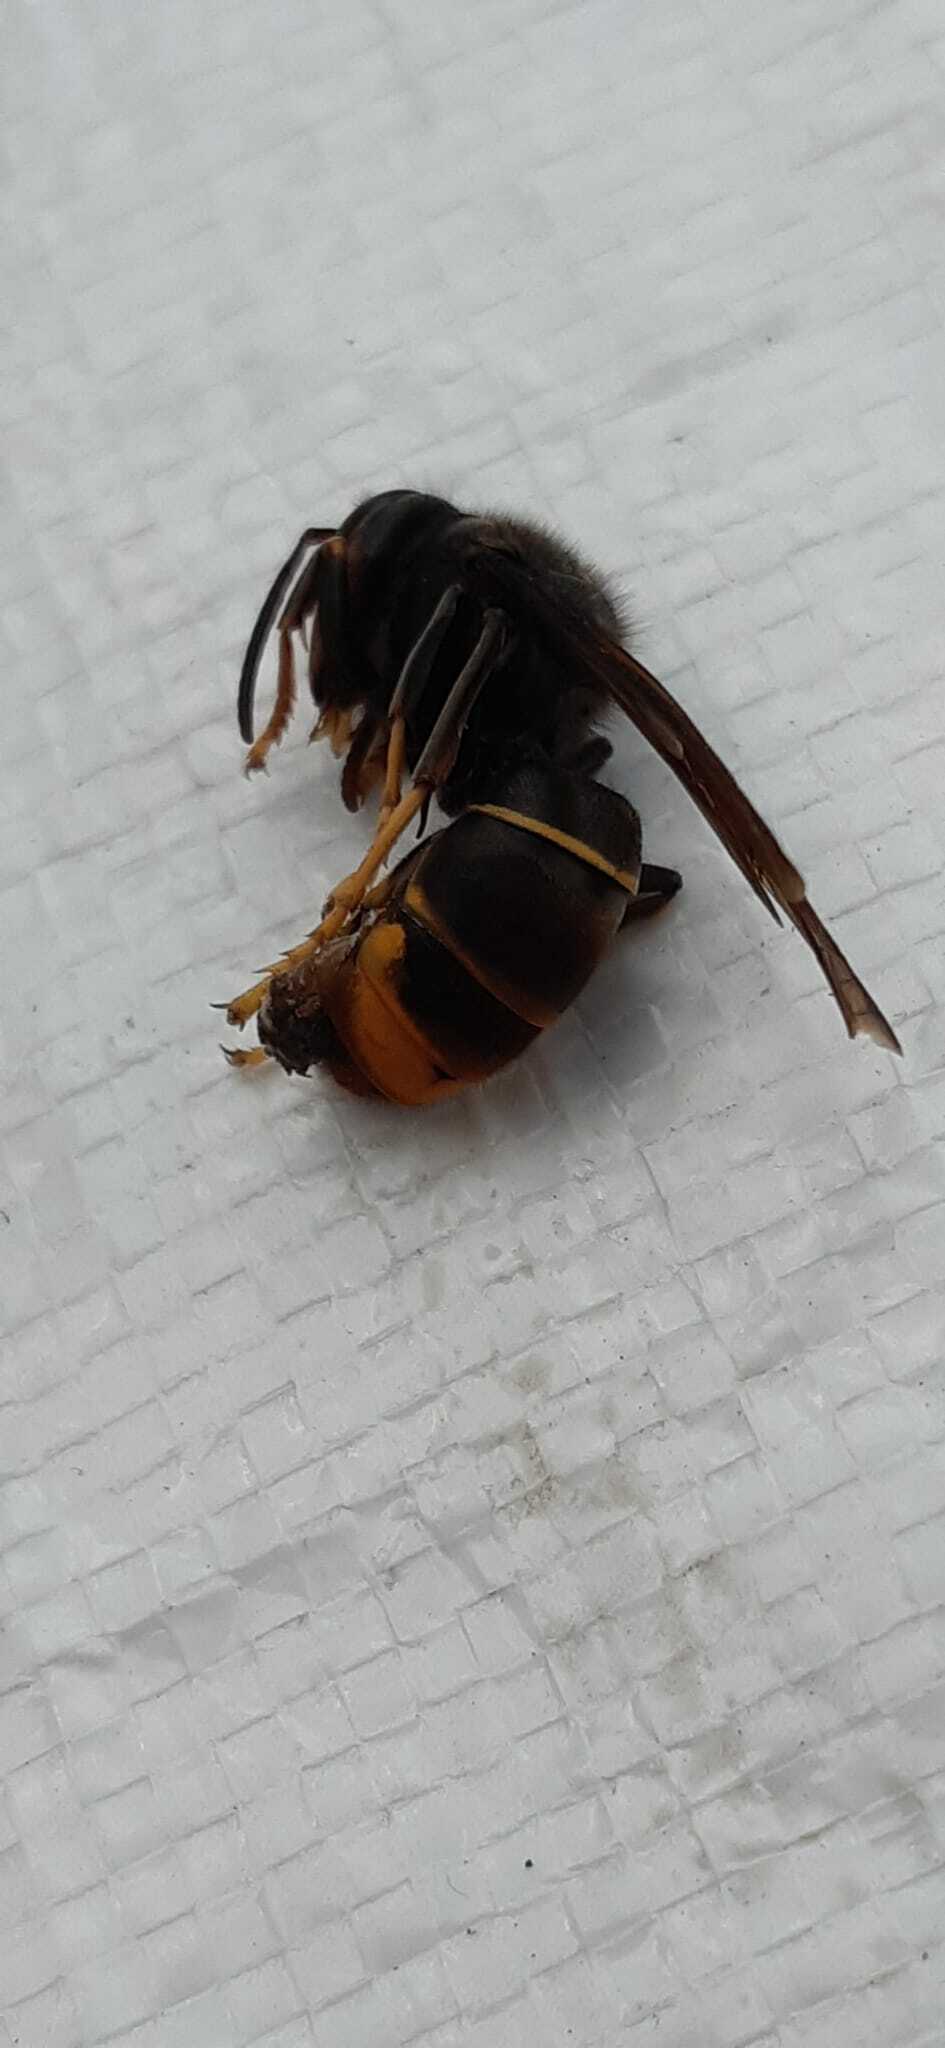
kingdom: Animalia
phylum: Arthropoda
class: Insecta
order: Hymenoptera
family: Vespidae
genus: Vespa
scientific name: Vespa velutina
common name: Asian hornet
